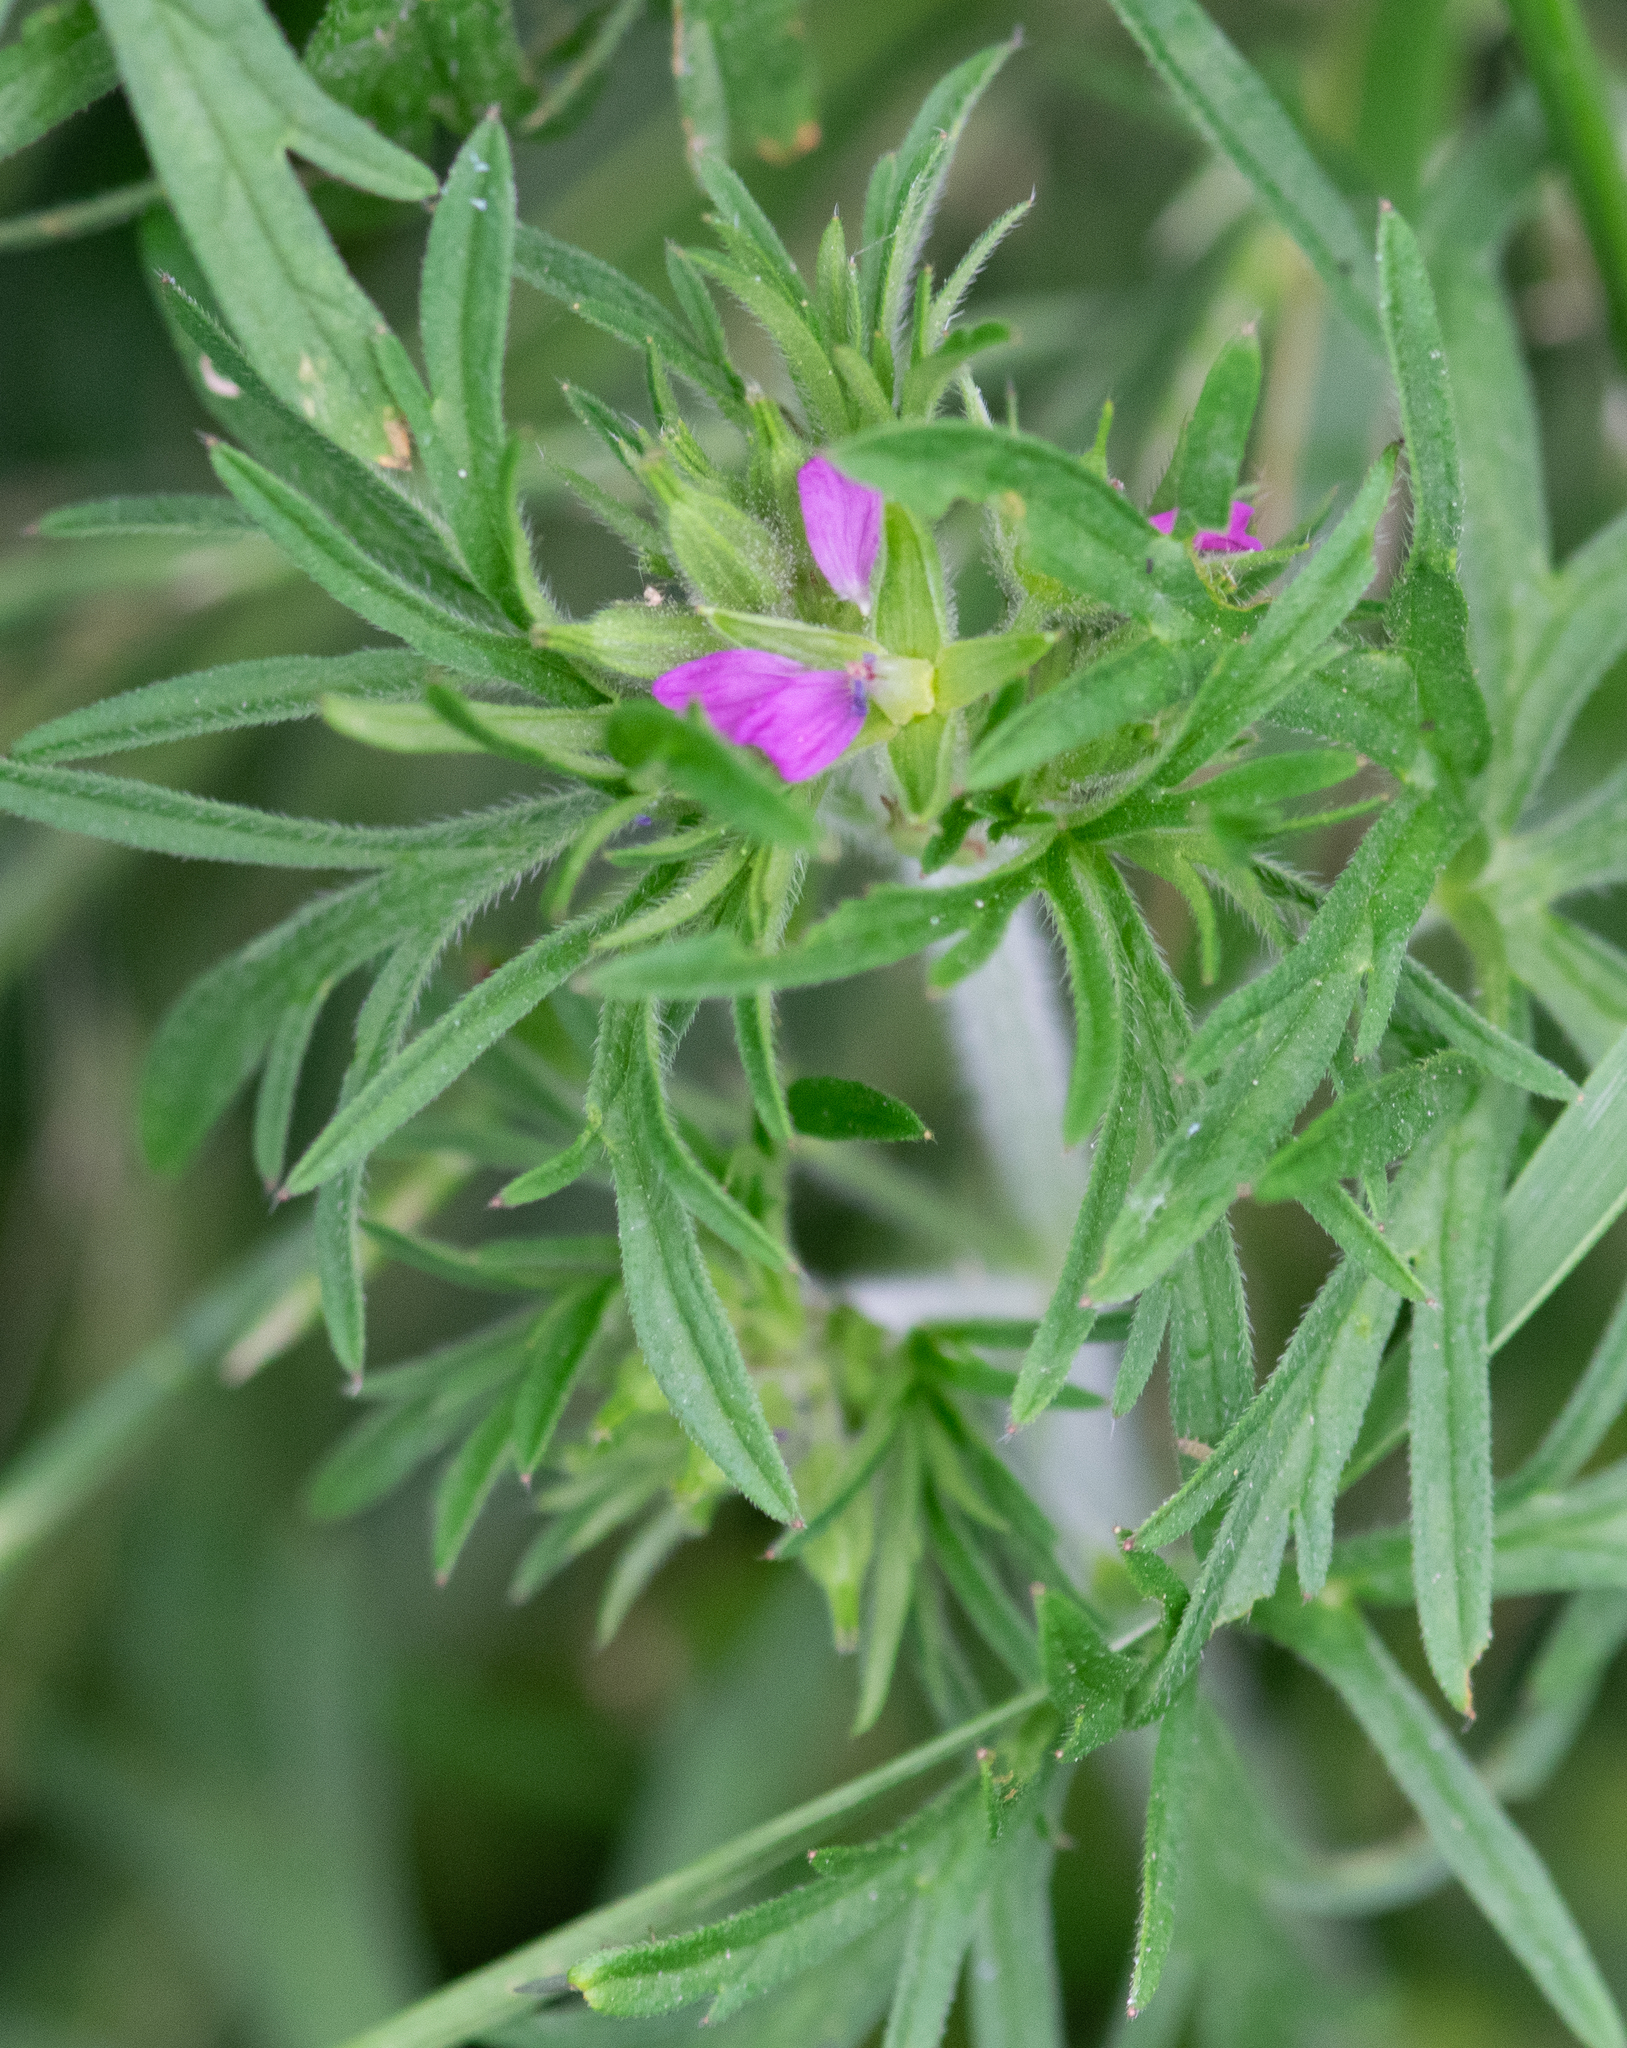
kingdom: Plantae
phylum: Tracheophyta
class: Magnoliopsida
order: Geraniales
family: Geraniaceae
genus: Geranium
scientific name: Geranium dissectum
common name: Cut-leaved crane's-bill
